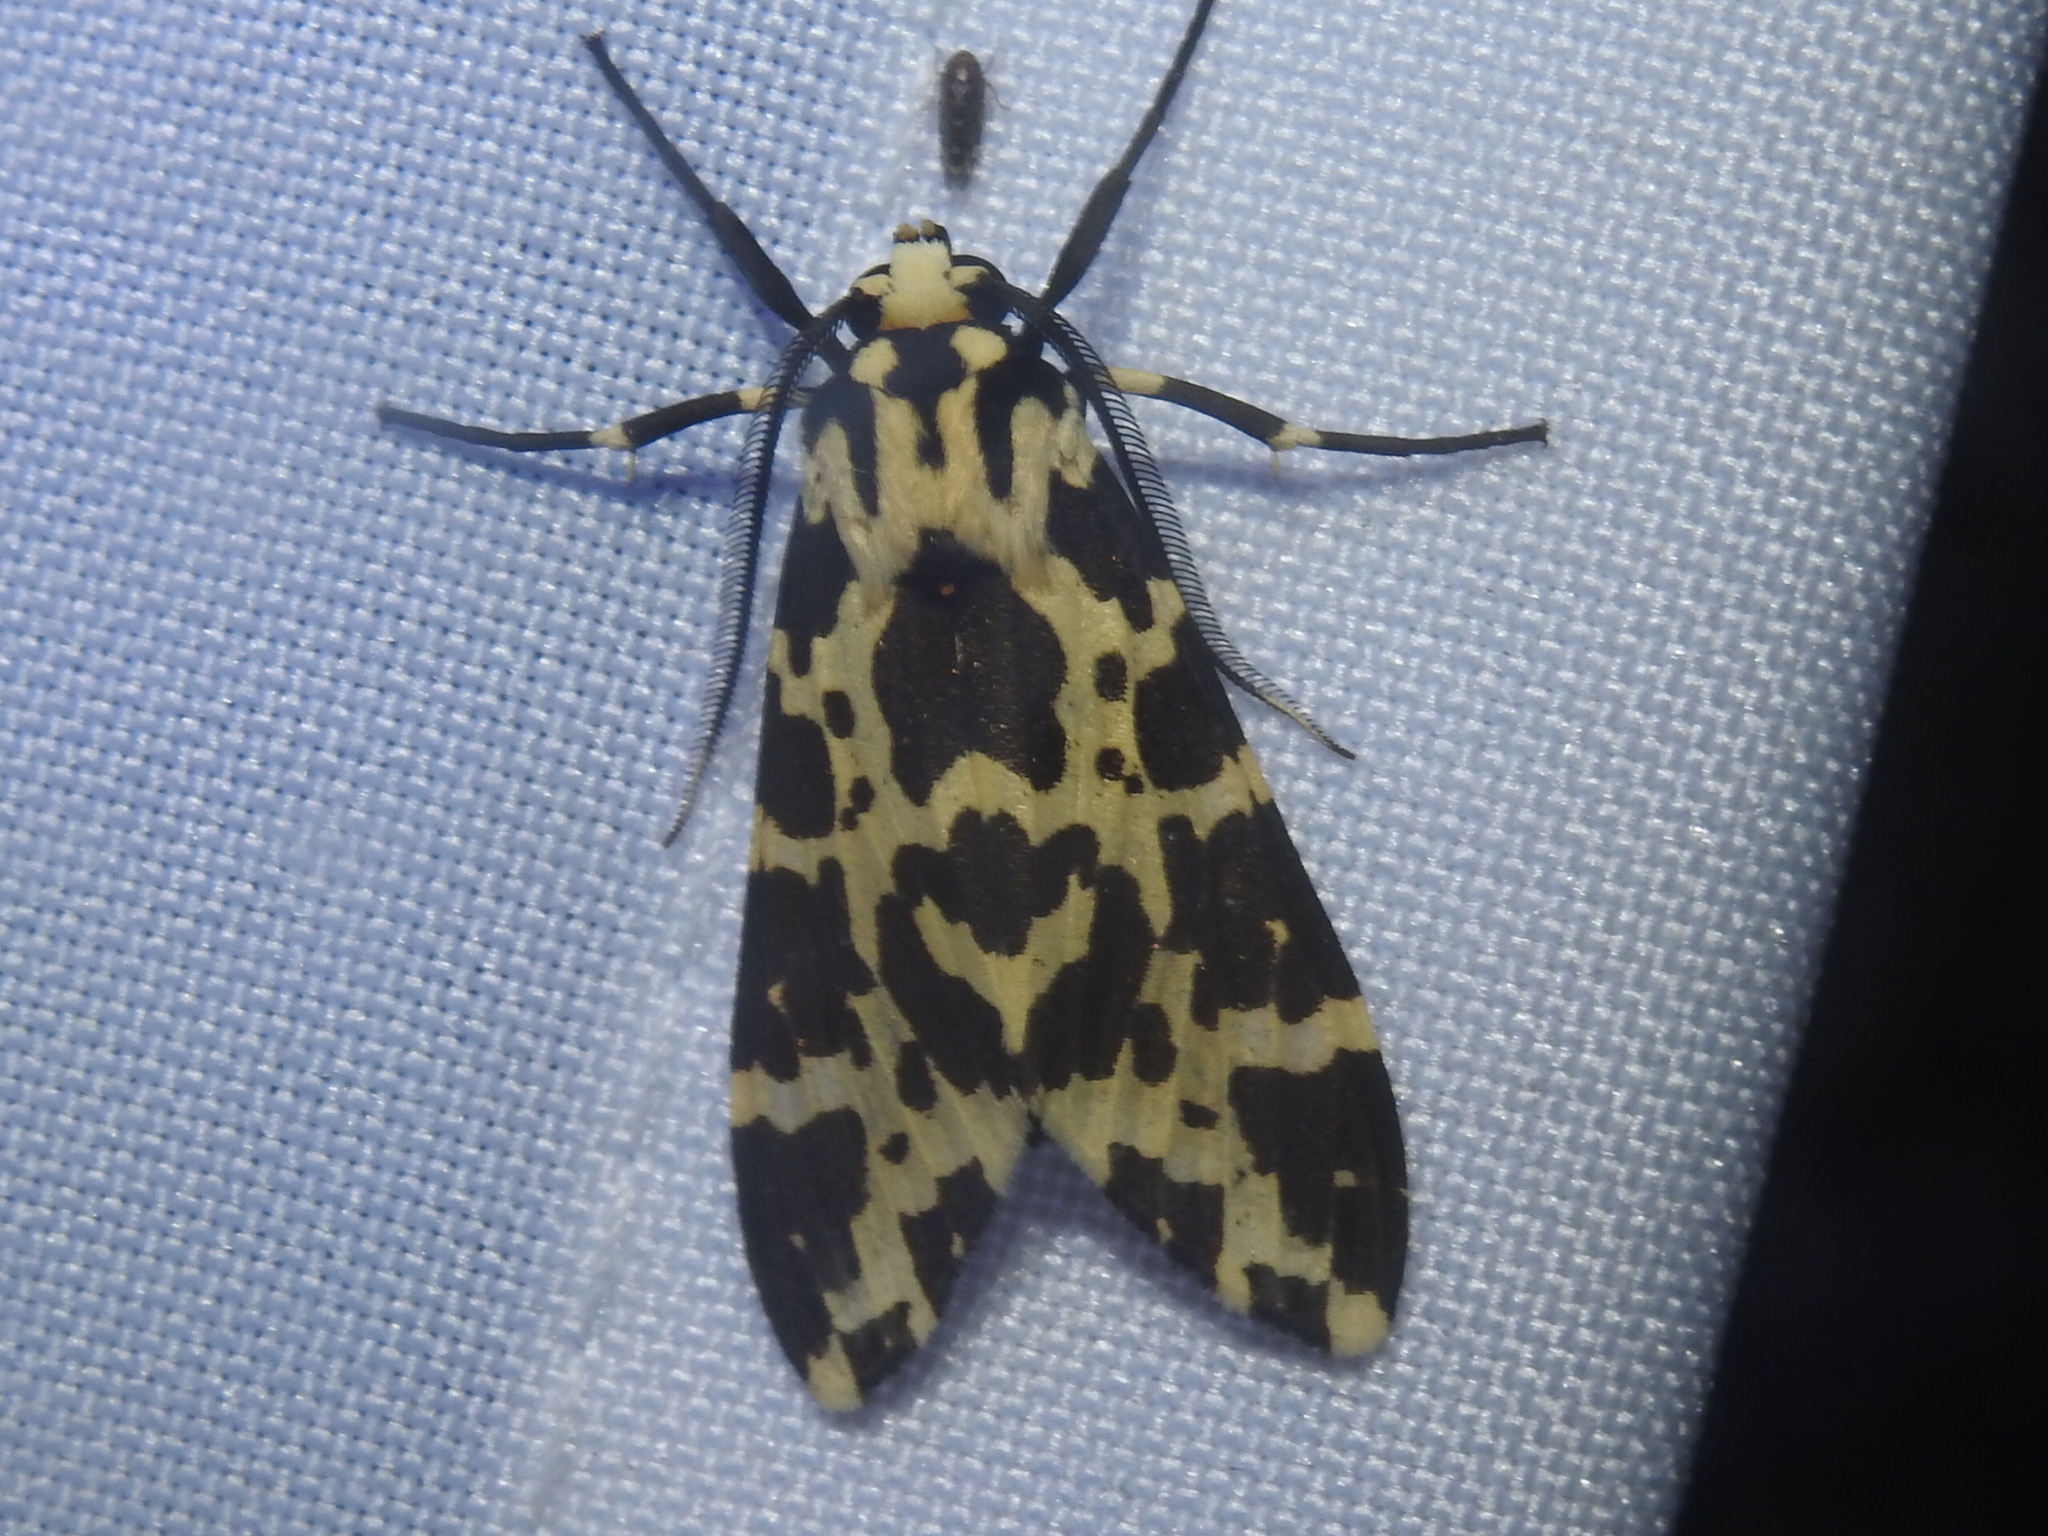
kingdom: Animalia
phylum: Arthropoda
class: Insecta
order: Lepidoptera
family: Erebidae
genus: Eucereon
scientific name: Eucereon consorta
